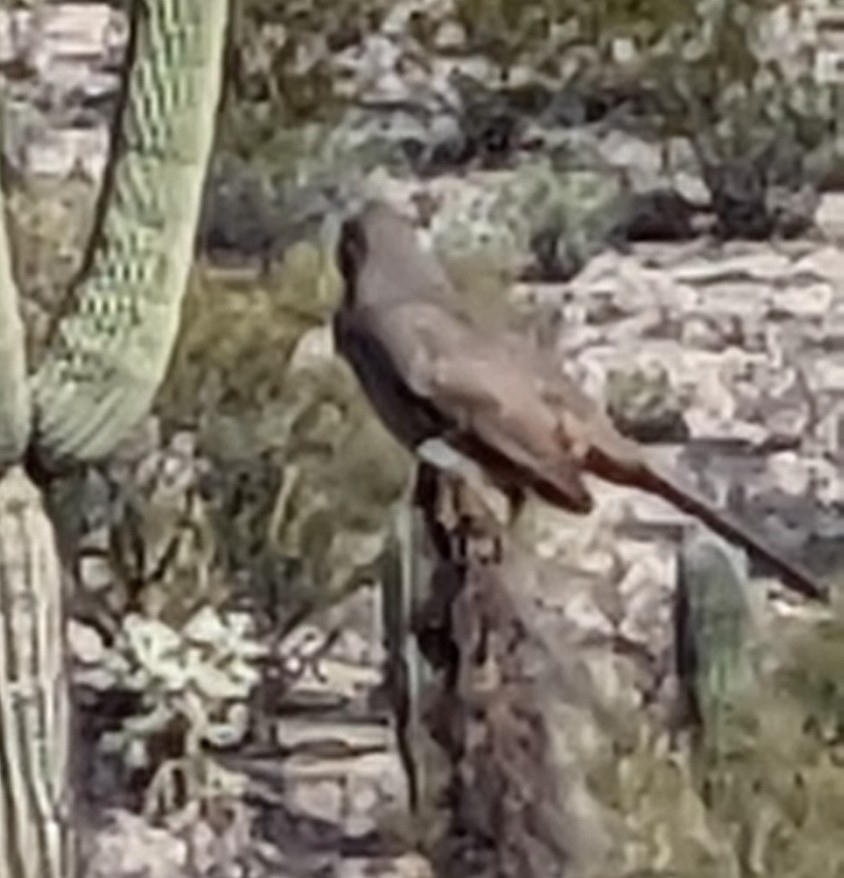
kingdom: Animalia
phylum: Chordata
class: Aves
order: Passeriformes
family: Mimidae
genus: Toxostoma
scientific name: Toxostoma curvirostre
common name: Curve-billed thrasher
